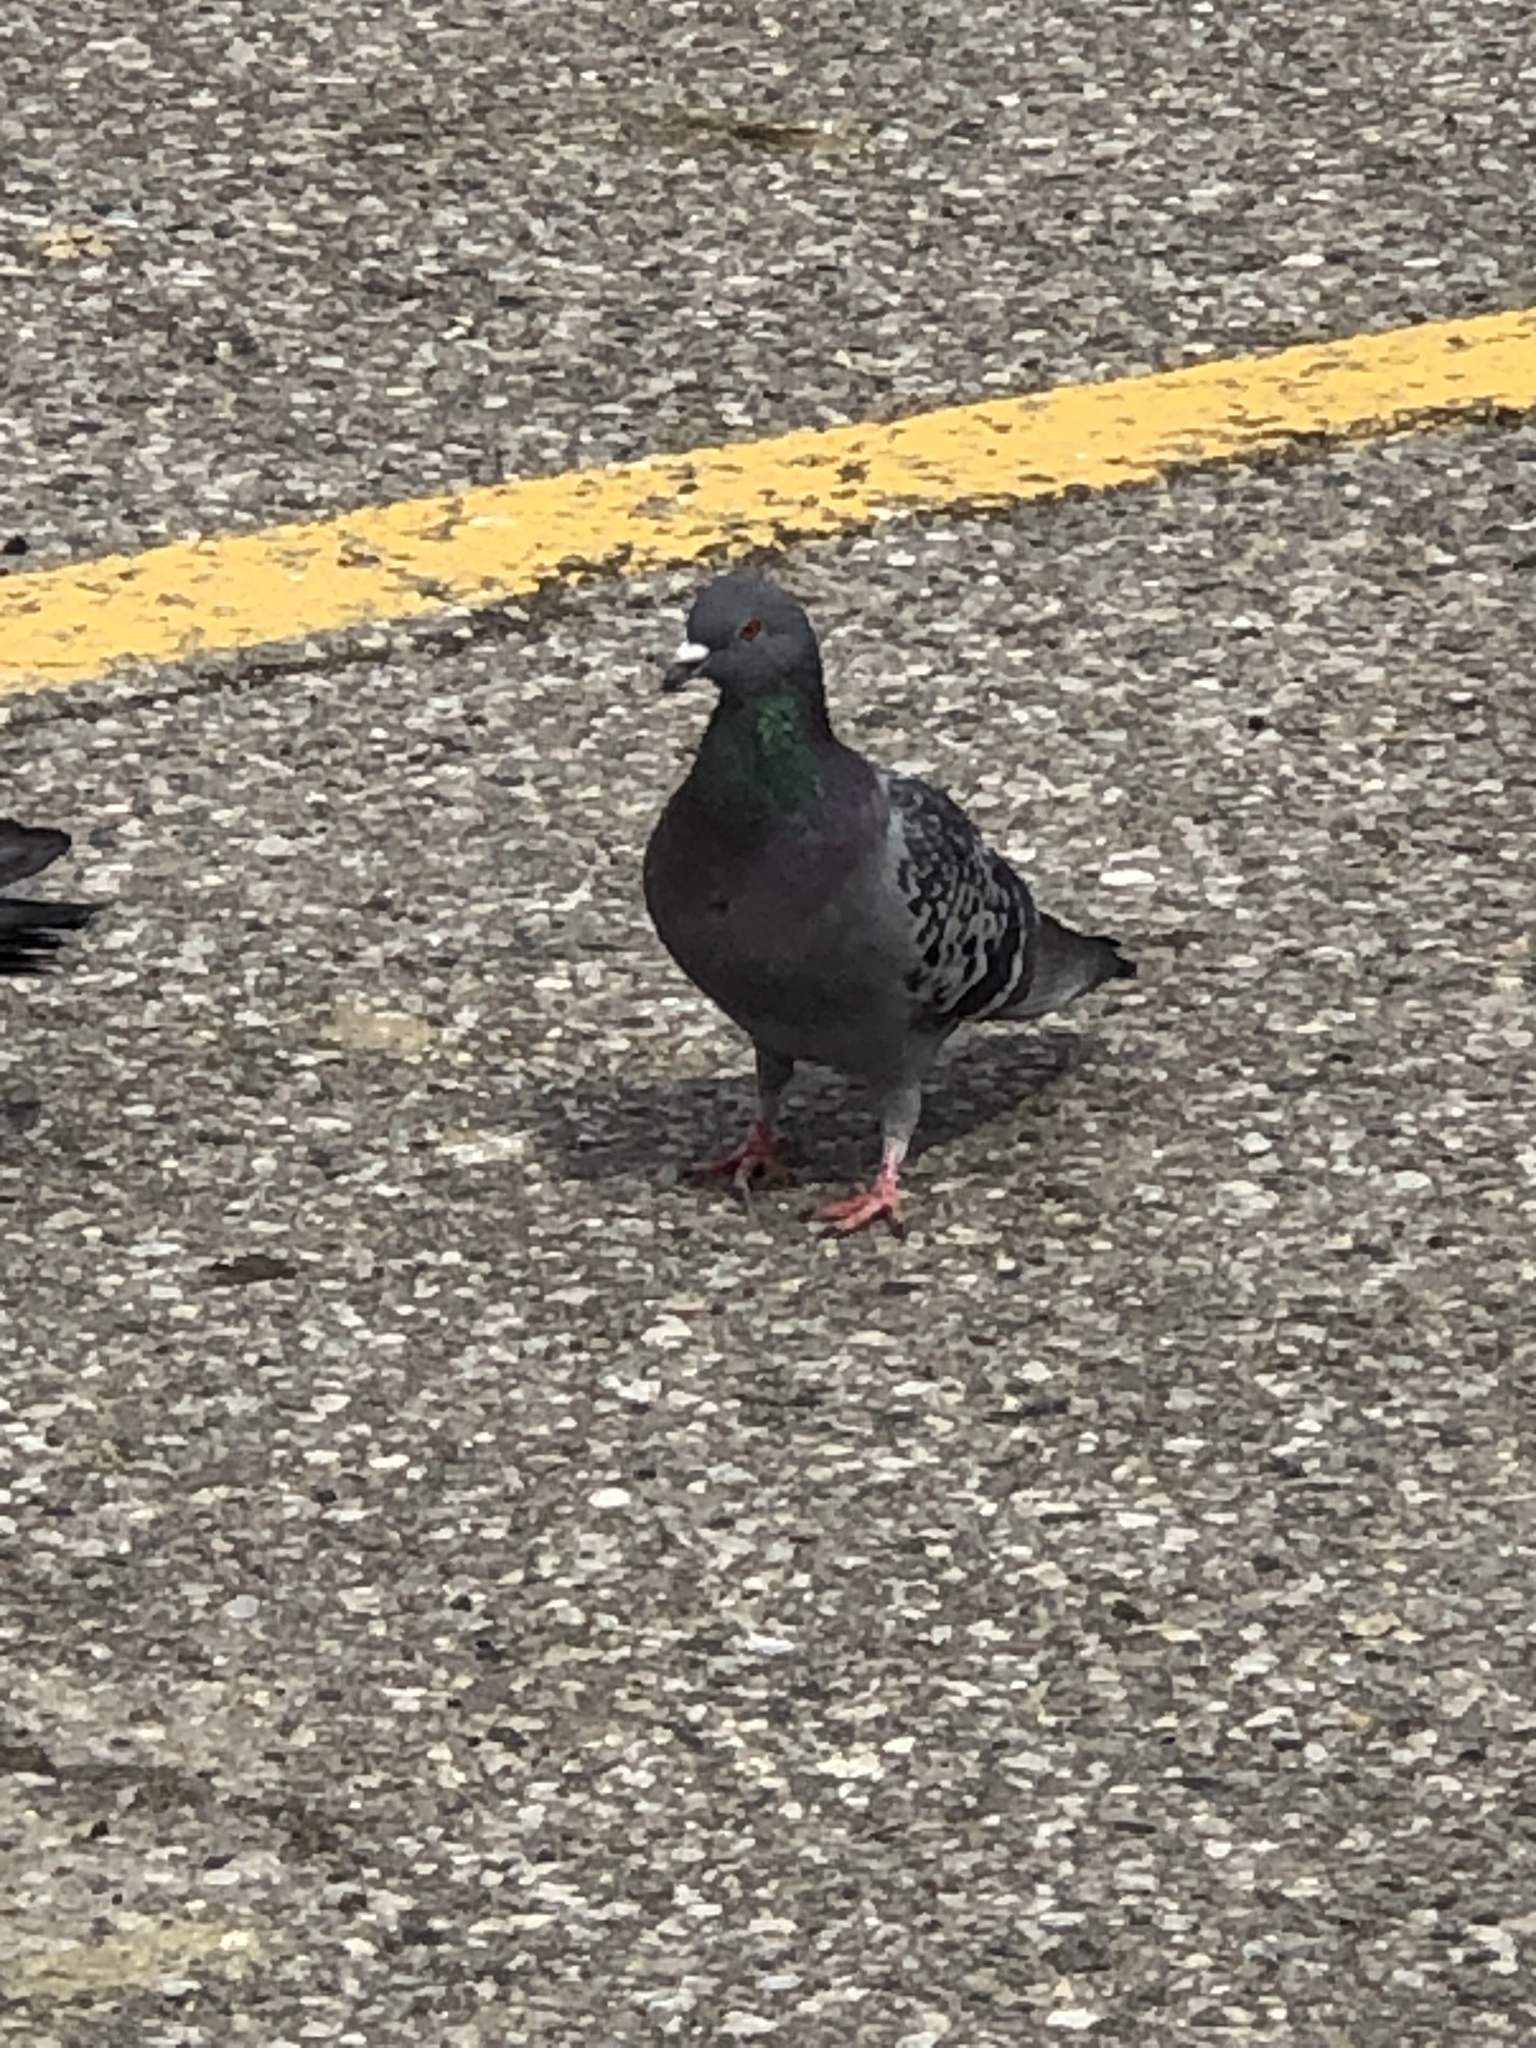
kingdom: Animalia
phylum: Chordata
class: Aves
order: Columbiformes
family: Columbidae
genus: Columba
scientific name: Columba livia
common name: Rock pigeon
